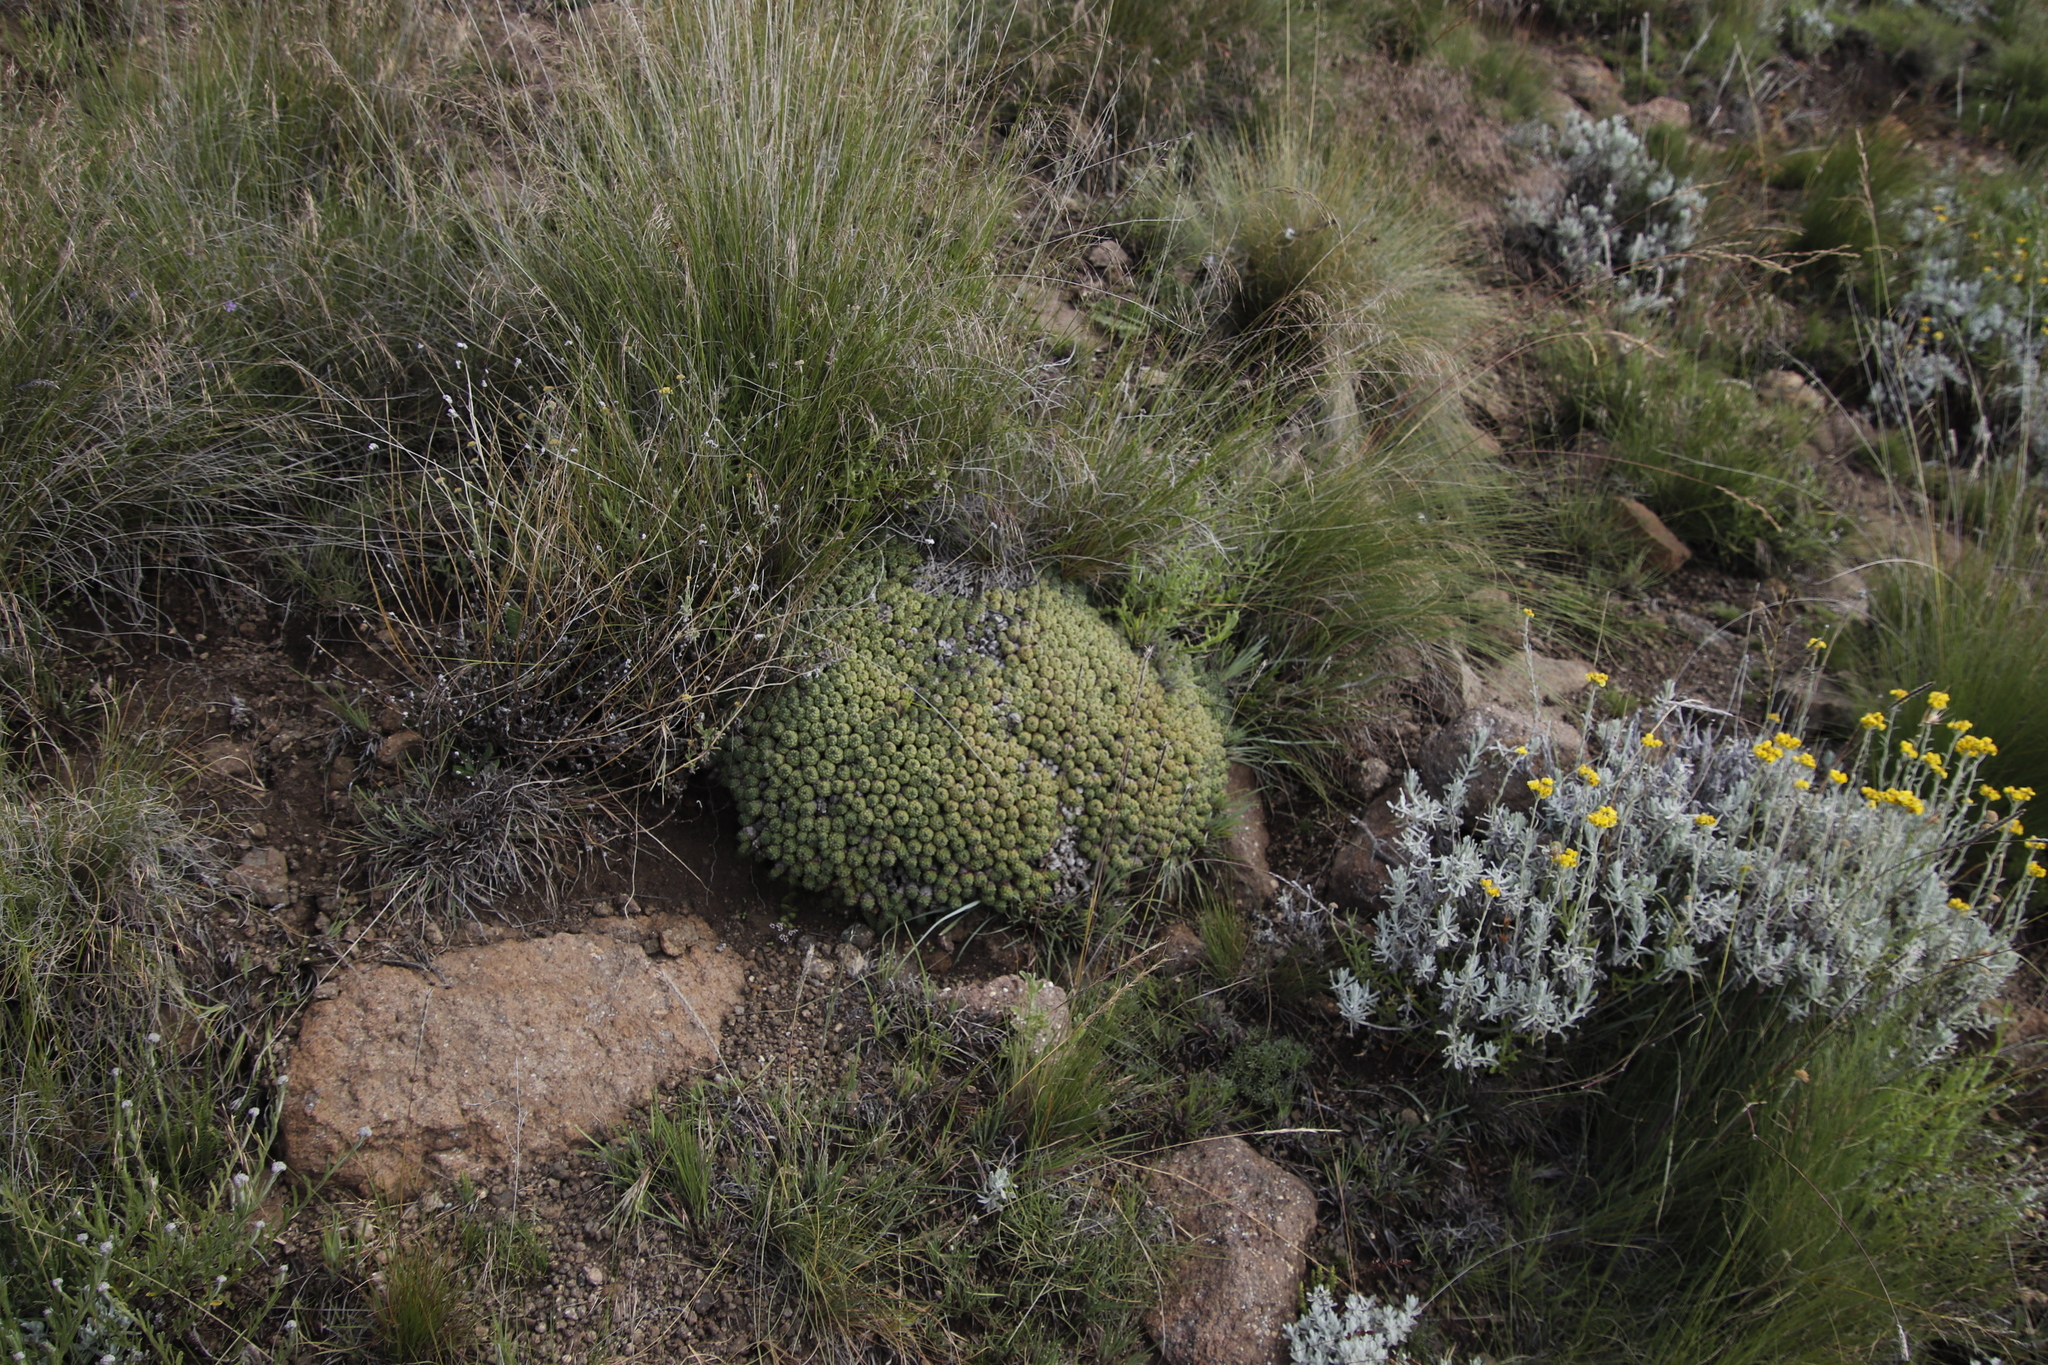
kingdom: Plantae
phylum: Tracheophyta
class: Magnoliopsida
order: Malpighiales
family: Euphorbiaceae
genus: Euphorbia
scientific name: Euphorbia clavarioides
